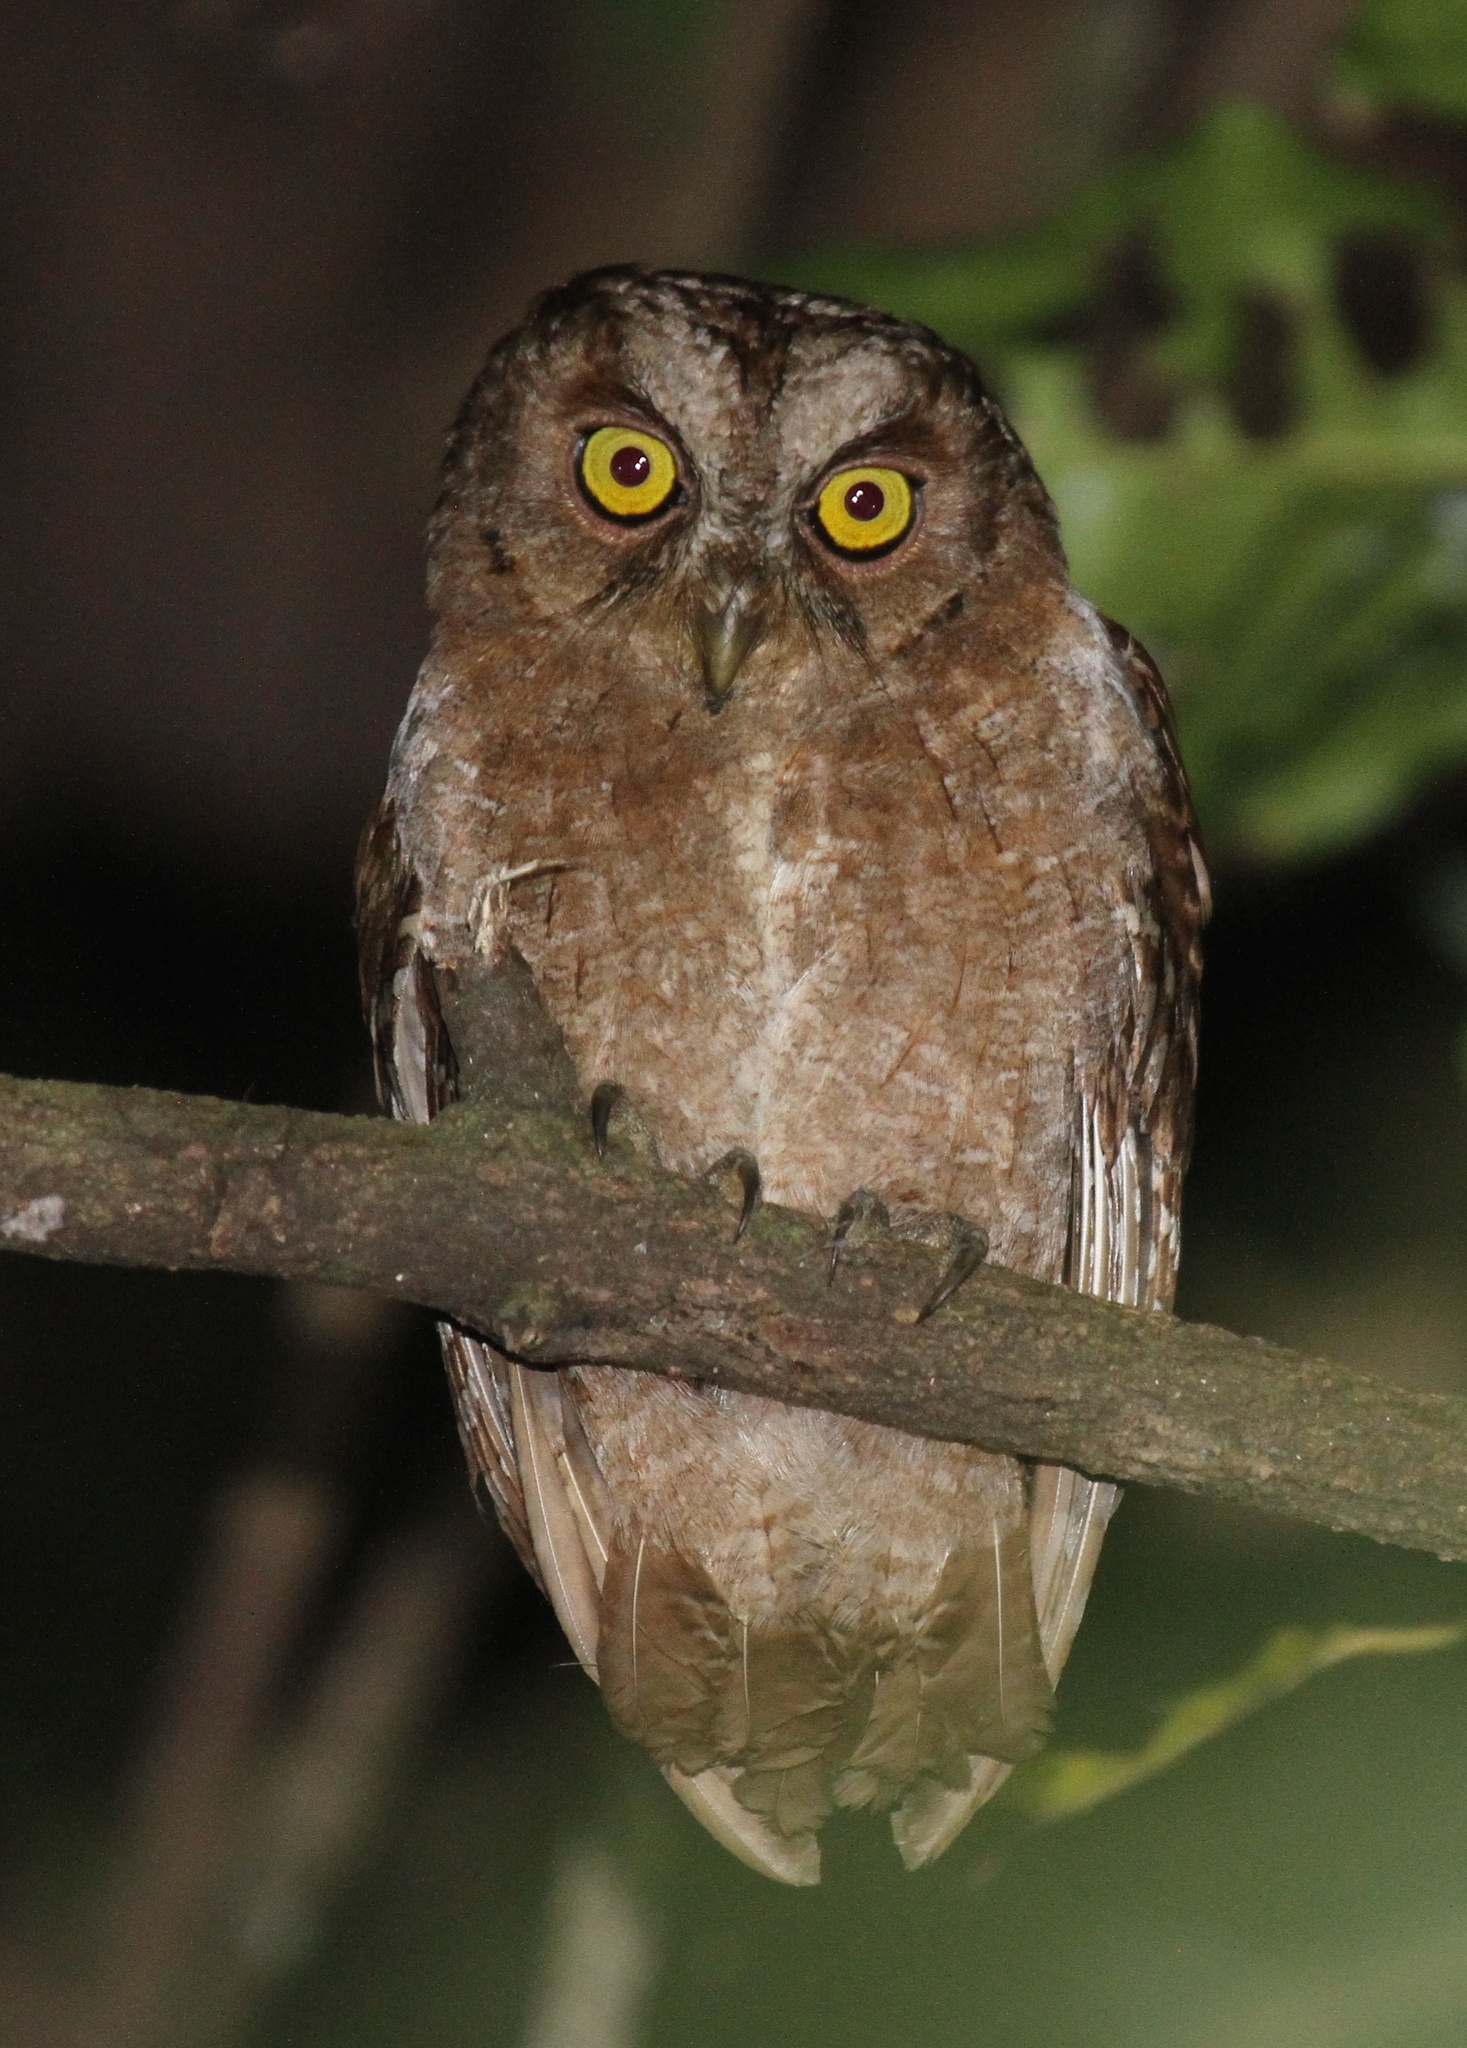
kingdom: Animalia
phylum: Chordata
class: Aves
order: Strigiformes
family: Strigidae
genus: Otus
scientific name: Otus pembaensis
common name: Pemba scops owl
